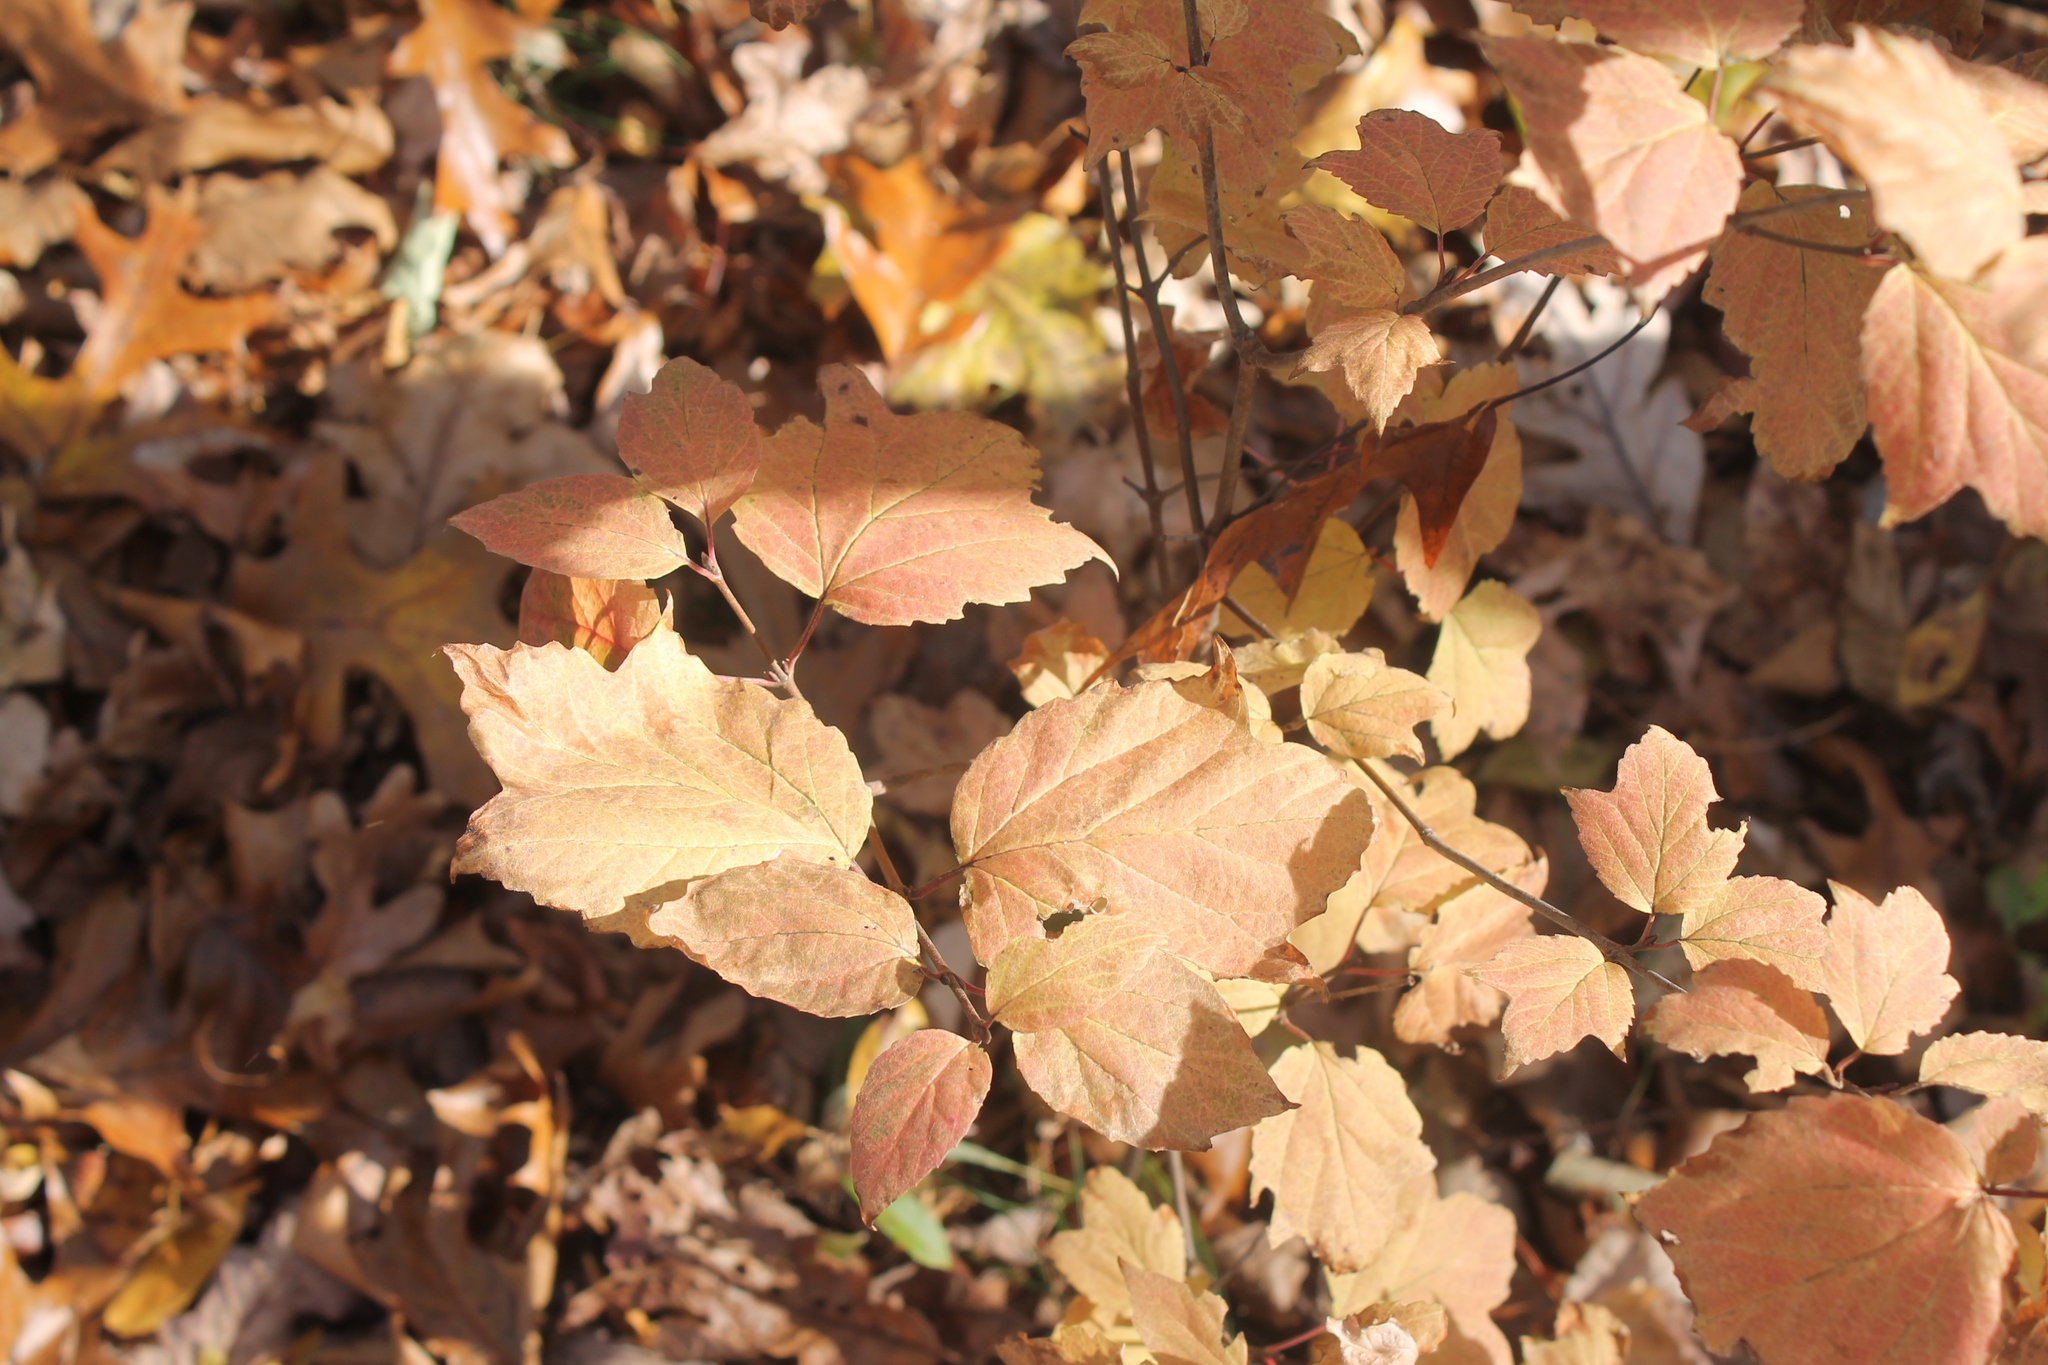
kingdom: Plantae
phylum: Tracheophyta
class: Magnoliopsida
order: Dipsacales
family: Viburnaceae
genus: Viburnum
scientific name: Viburnum acerifolium
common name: Dockmackie
